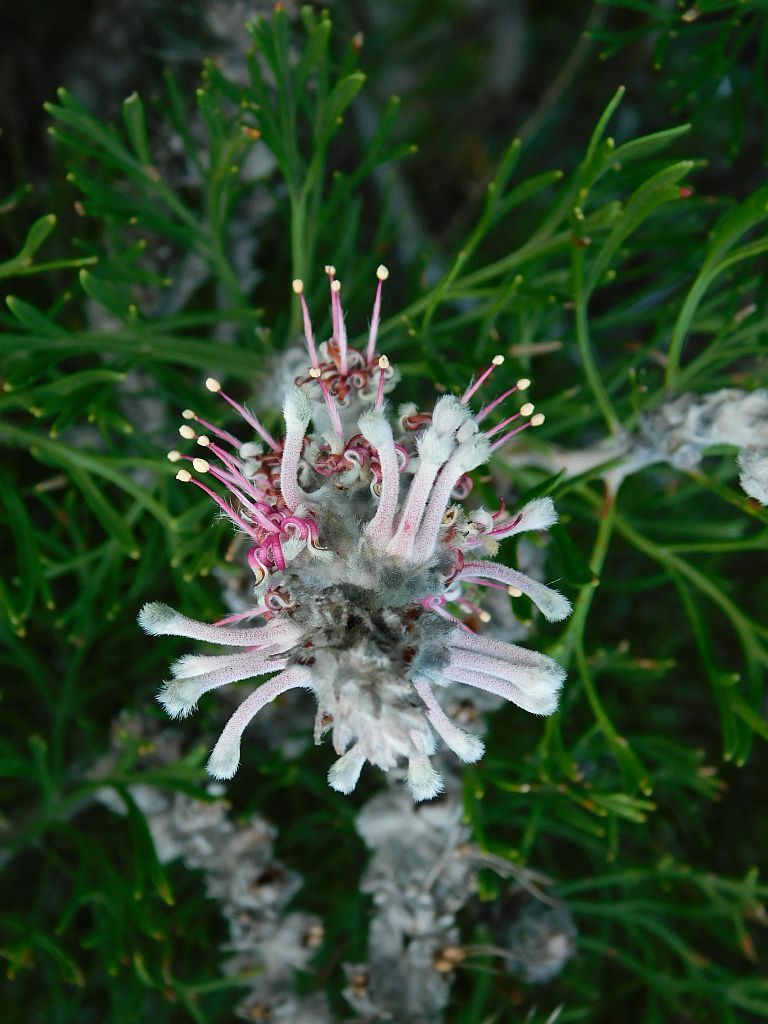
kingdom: Plantae
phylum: Tracheophyta
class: Magnoliopsida
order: Proteales
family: Proteaceae
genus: Paranomus
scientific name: Paranomus dispersus
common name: Long-head sceptre
